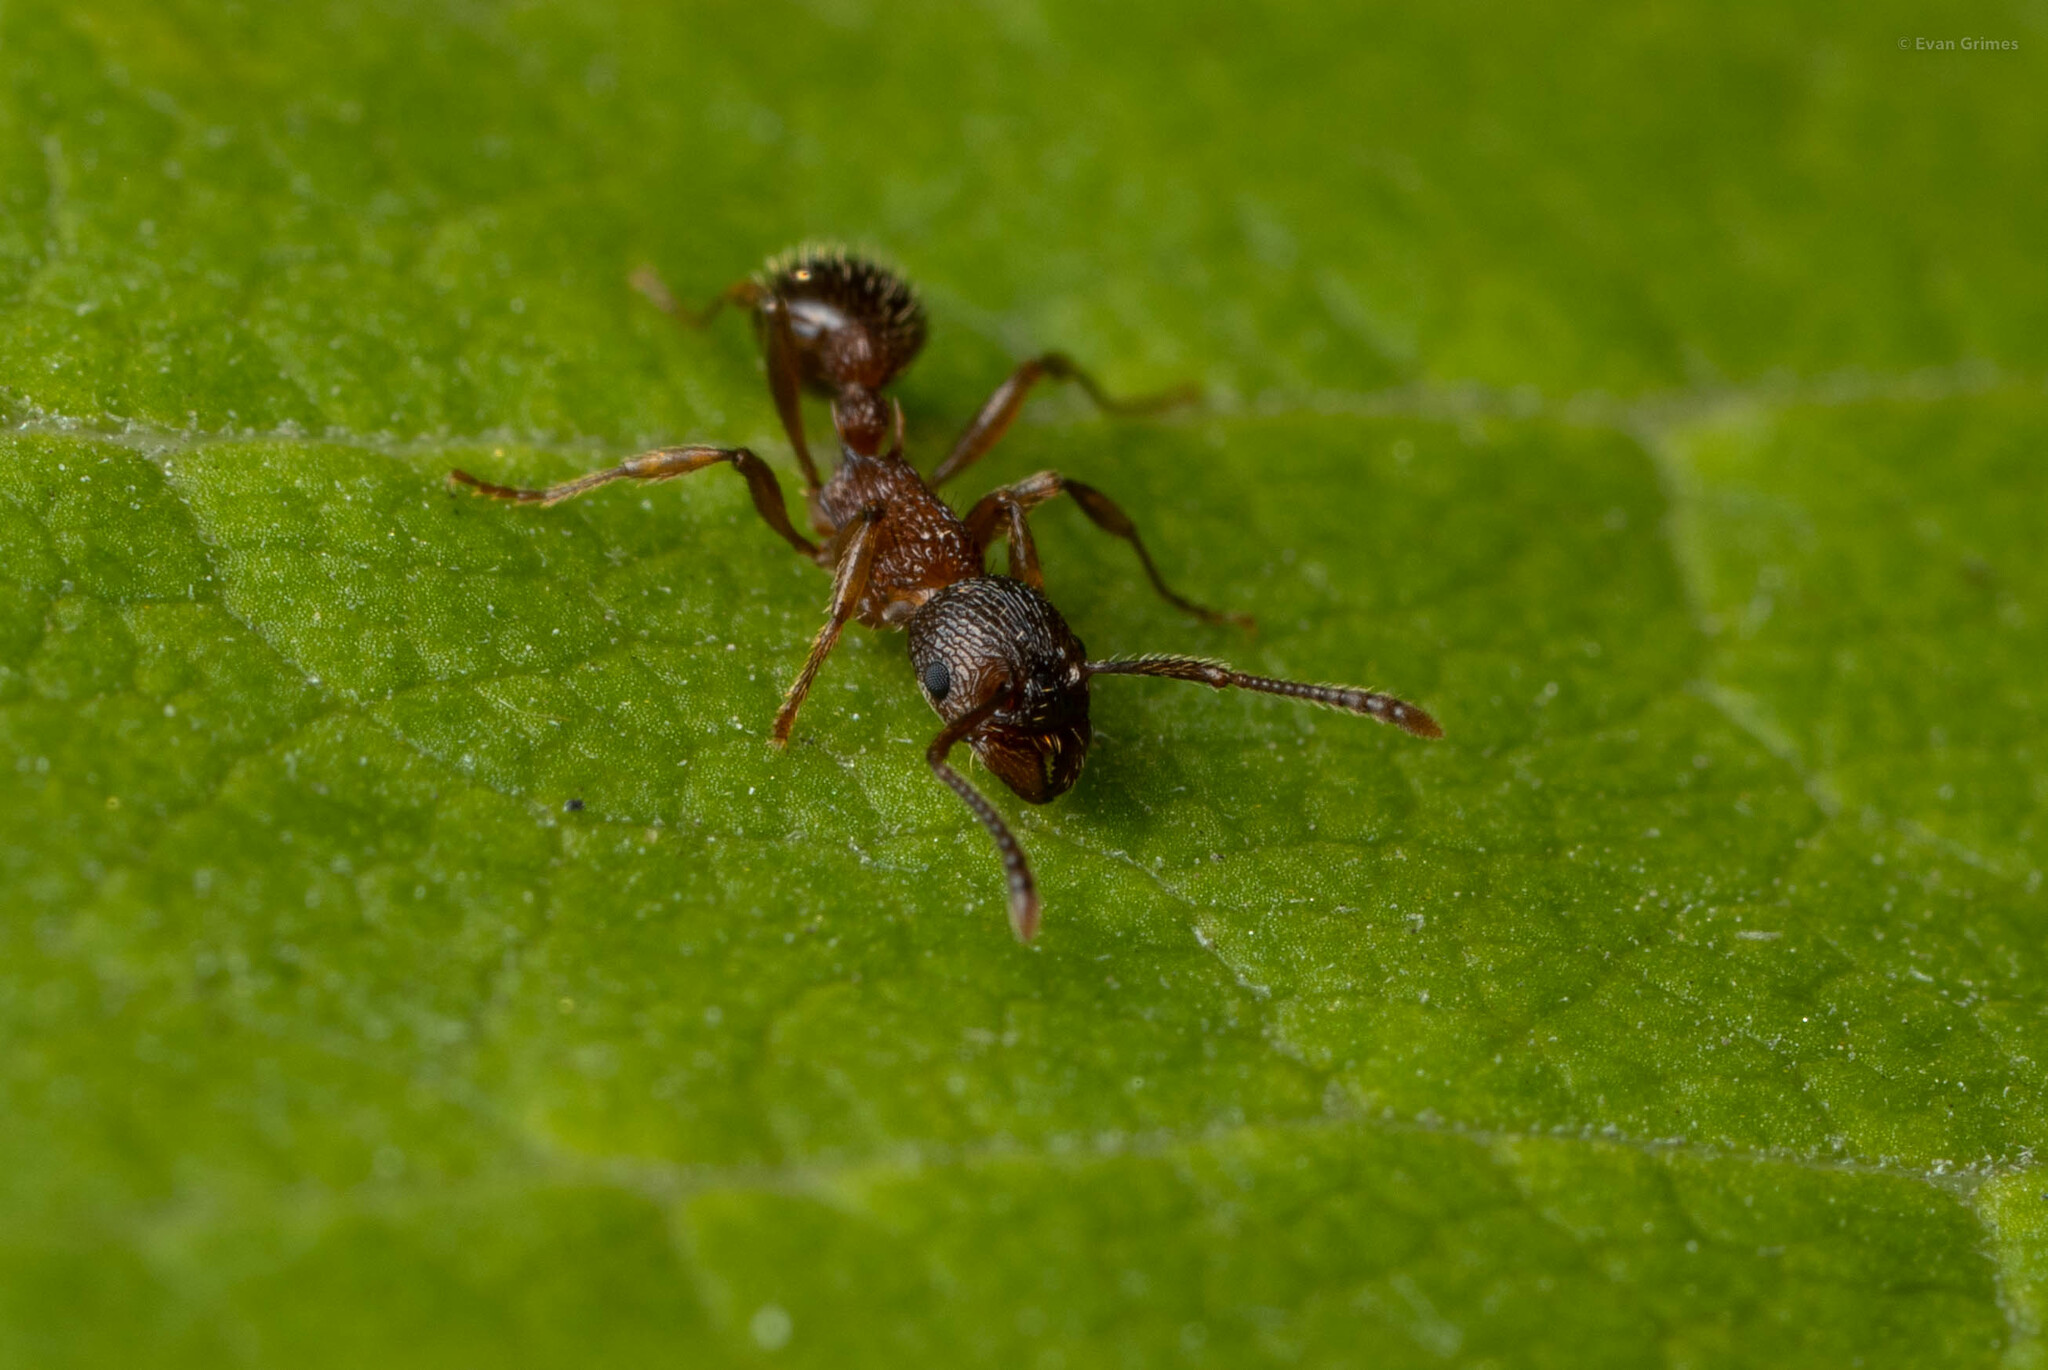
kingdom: Animalia
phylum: Arthropoda
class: Insecta
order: Hymenoptera
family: Formicidae
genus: Myrmica
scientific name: Myrmica
